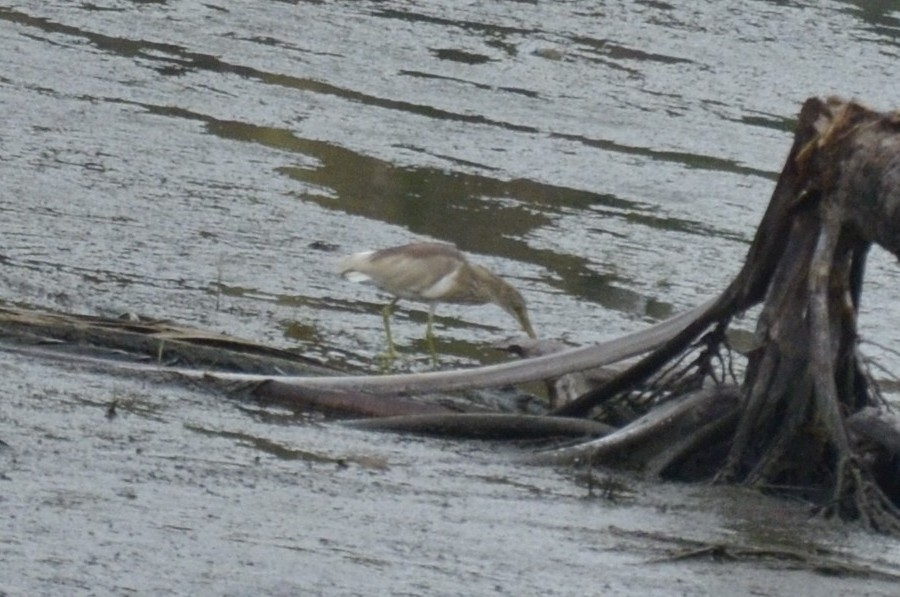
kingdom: Animalia
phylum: Chordata
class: Aves
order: Pelecaniformes
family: Ardeidae
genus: Ardeola
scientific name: Ardeola grayii
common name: Indian pond heron
